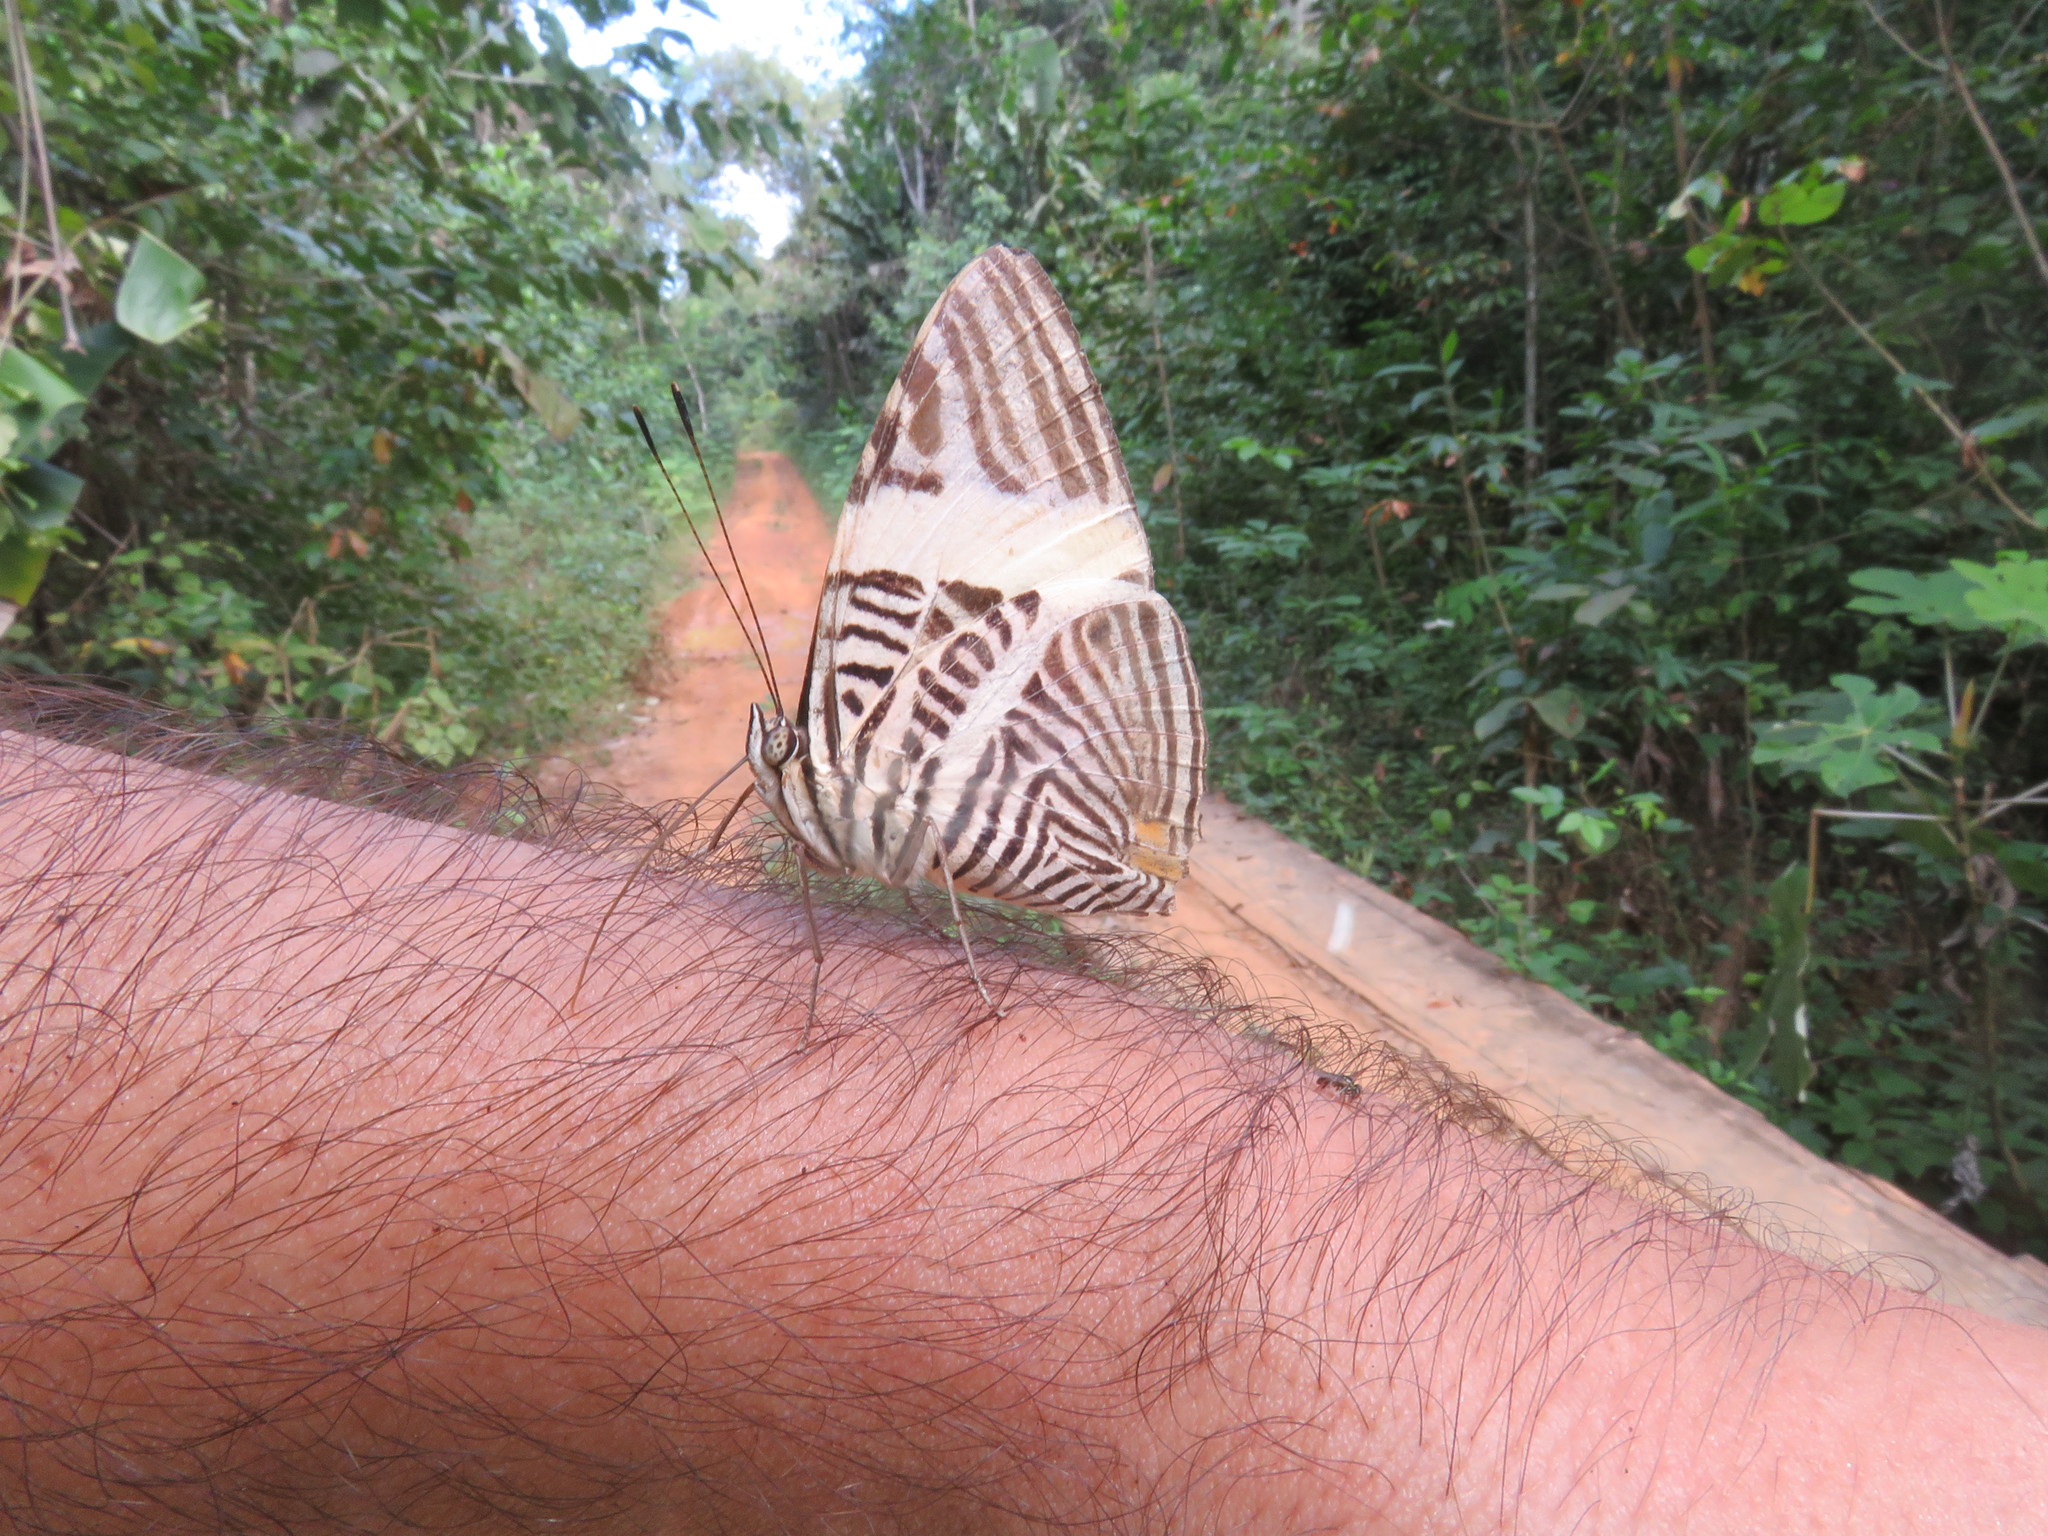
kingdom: Animalia
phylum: Arthropoda
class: Insecta
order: Lepidoptera
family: Nymphalidae
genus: Colobura
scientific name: Colobura dirce
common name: Dirce beauty
